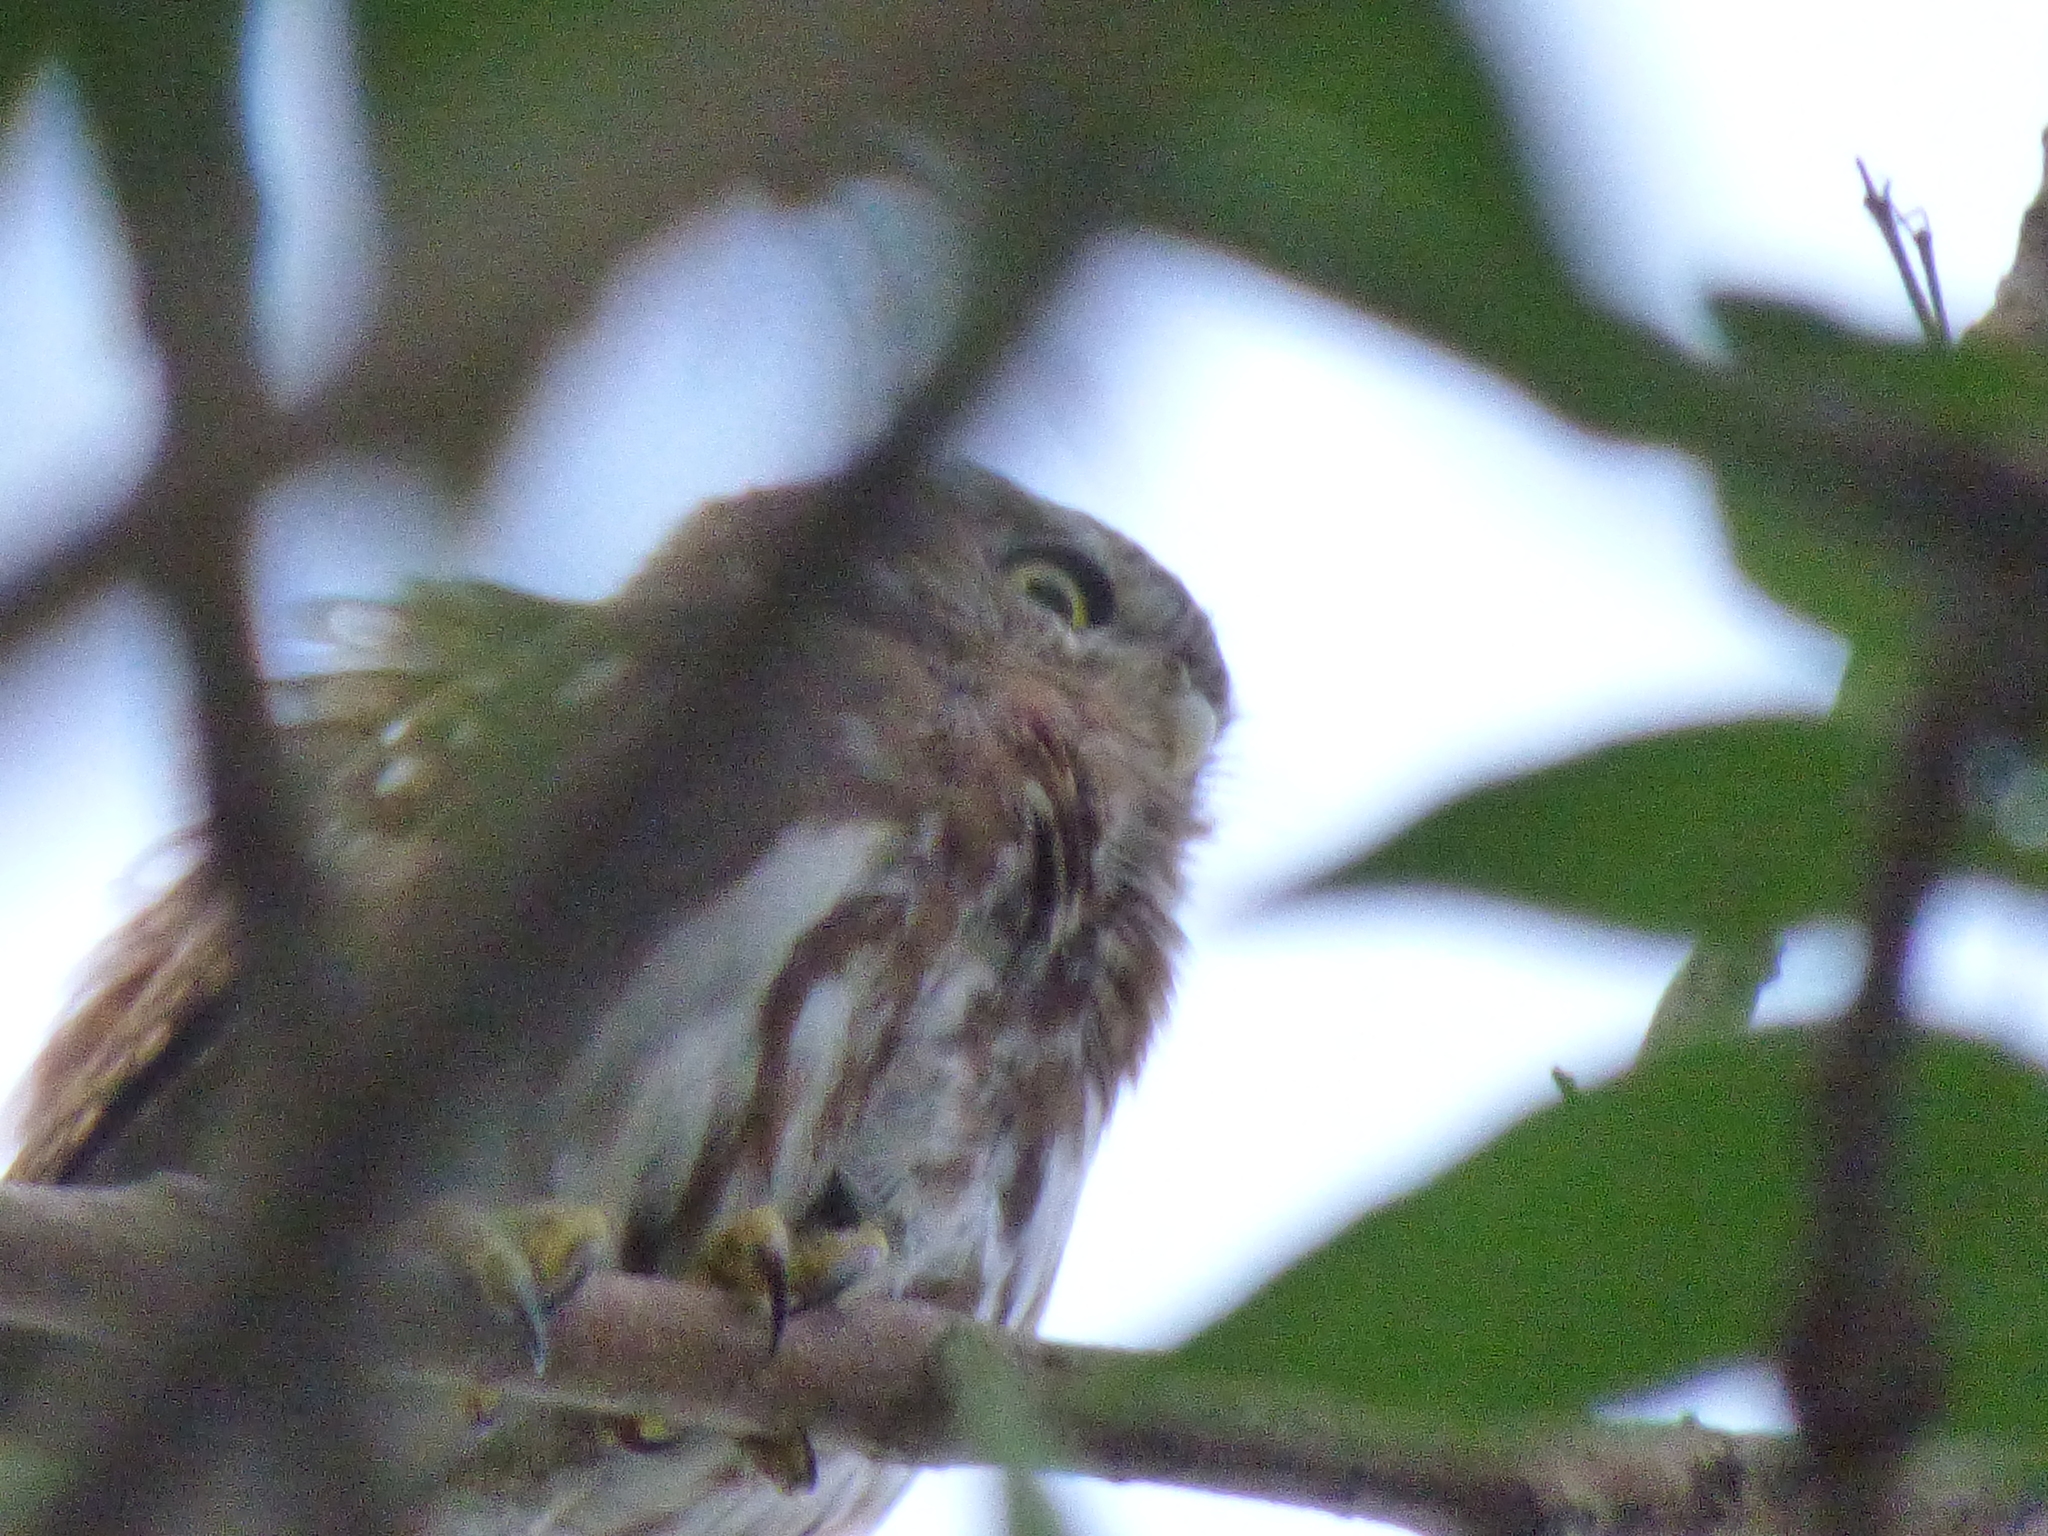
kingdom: Animalia
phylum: Chordata
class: Aves
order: Strigiformes
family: Strigidae
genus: Glaucidium
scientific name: Glaucidium brasilianum
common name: Ferruginous pygmy-owl
